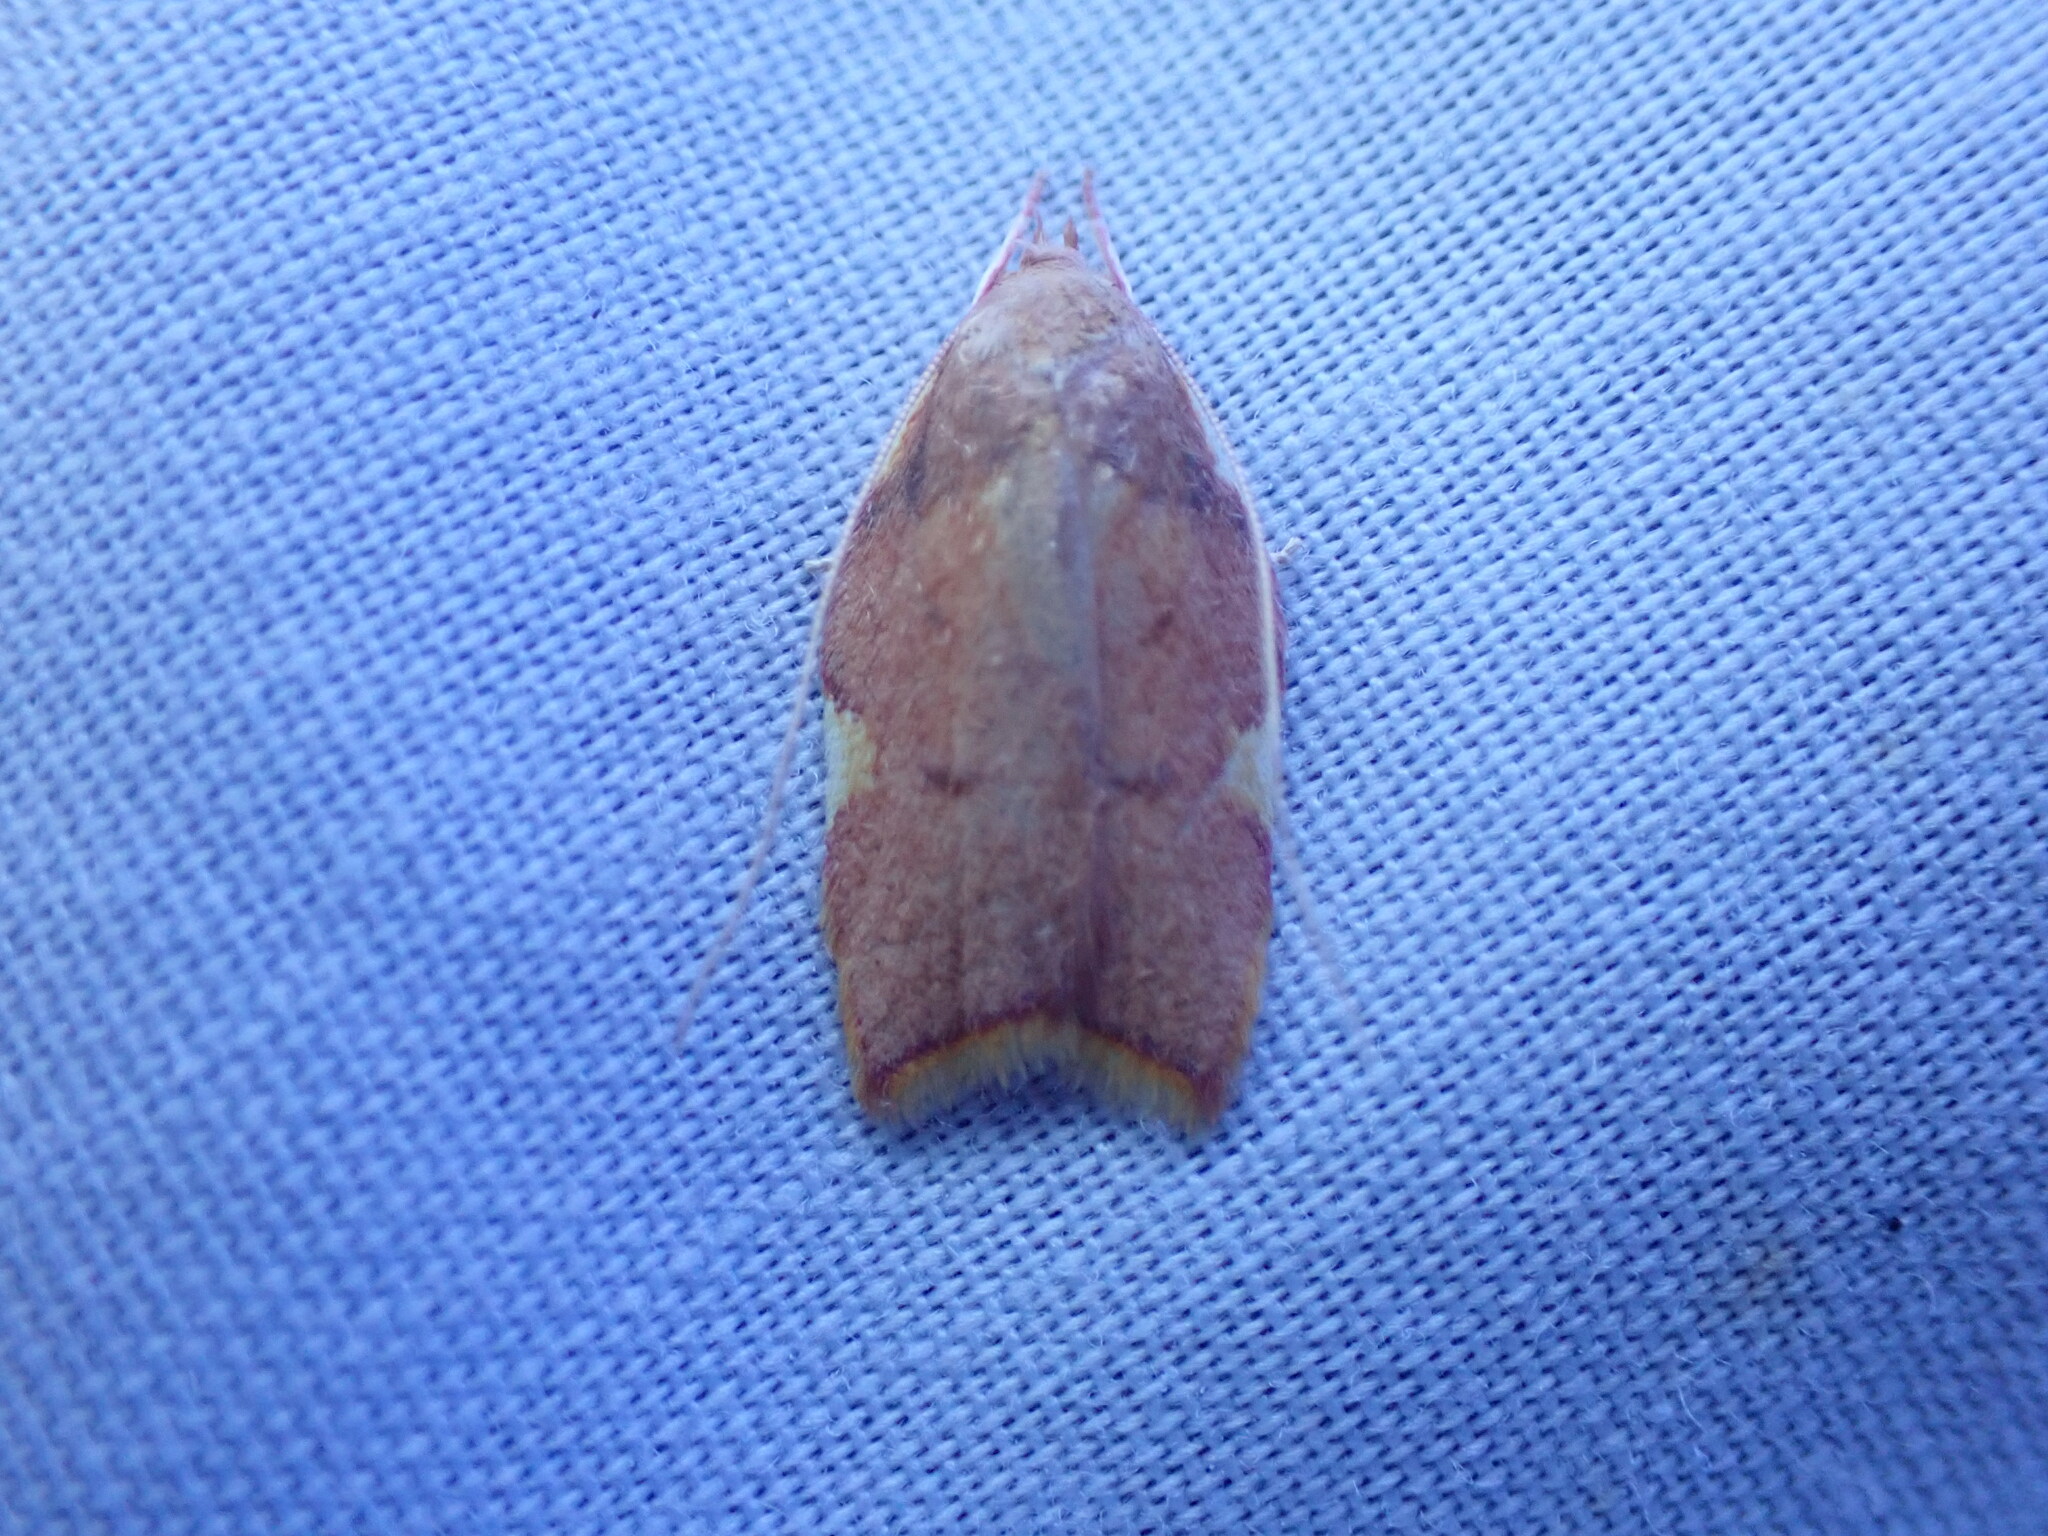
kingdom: Animalia
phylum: Arthropoda
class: Insecta
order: Lepidoptera
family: Peleopodidae
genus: Carcina
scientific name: Carcina quercana
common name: Moth
